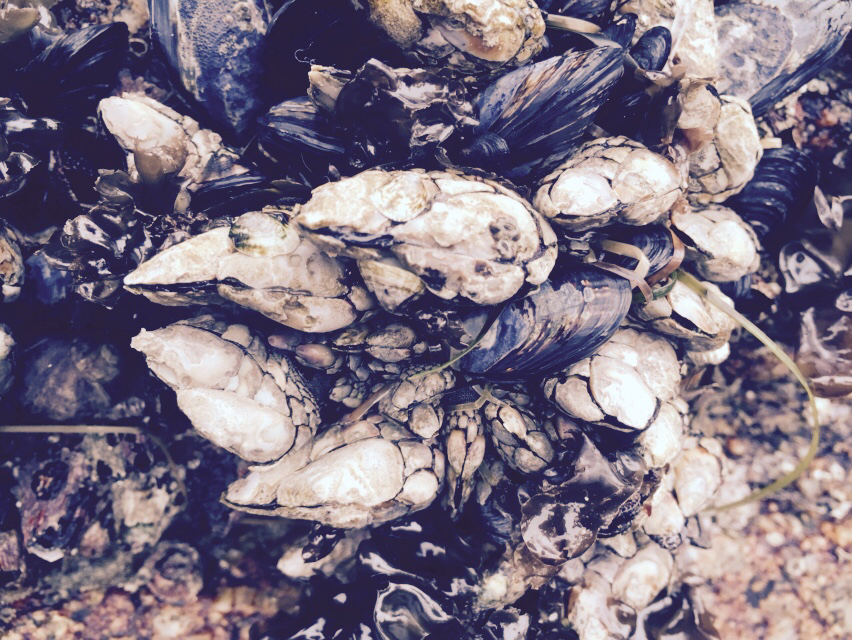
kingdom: Animalia
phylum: Arthropoda
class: Maxillopoda
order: Pedunculata
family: Pollicipedidae
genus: Pollicipes
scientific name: Pollicipes polymerus
